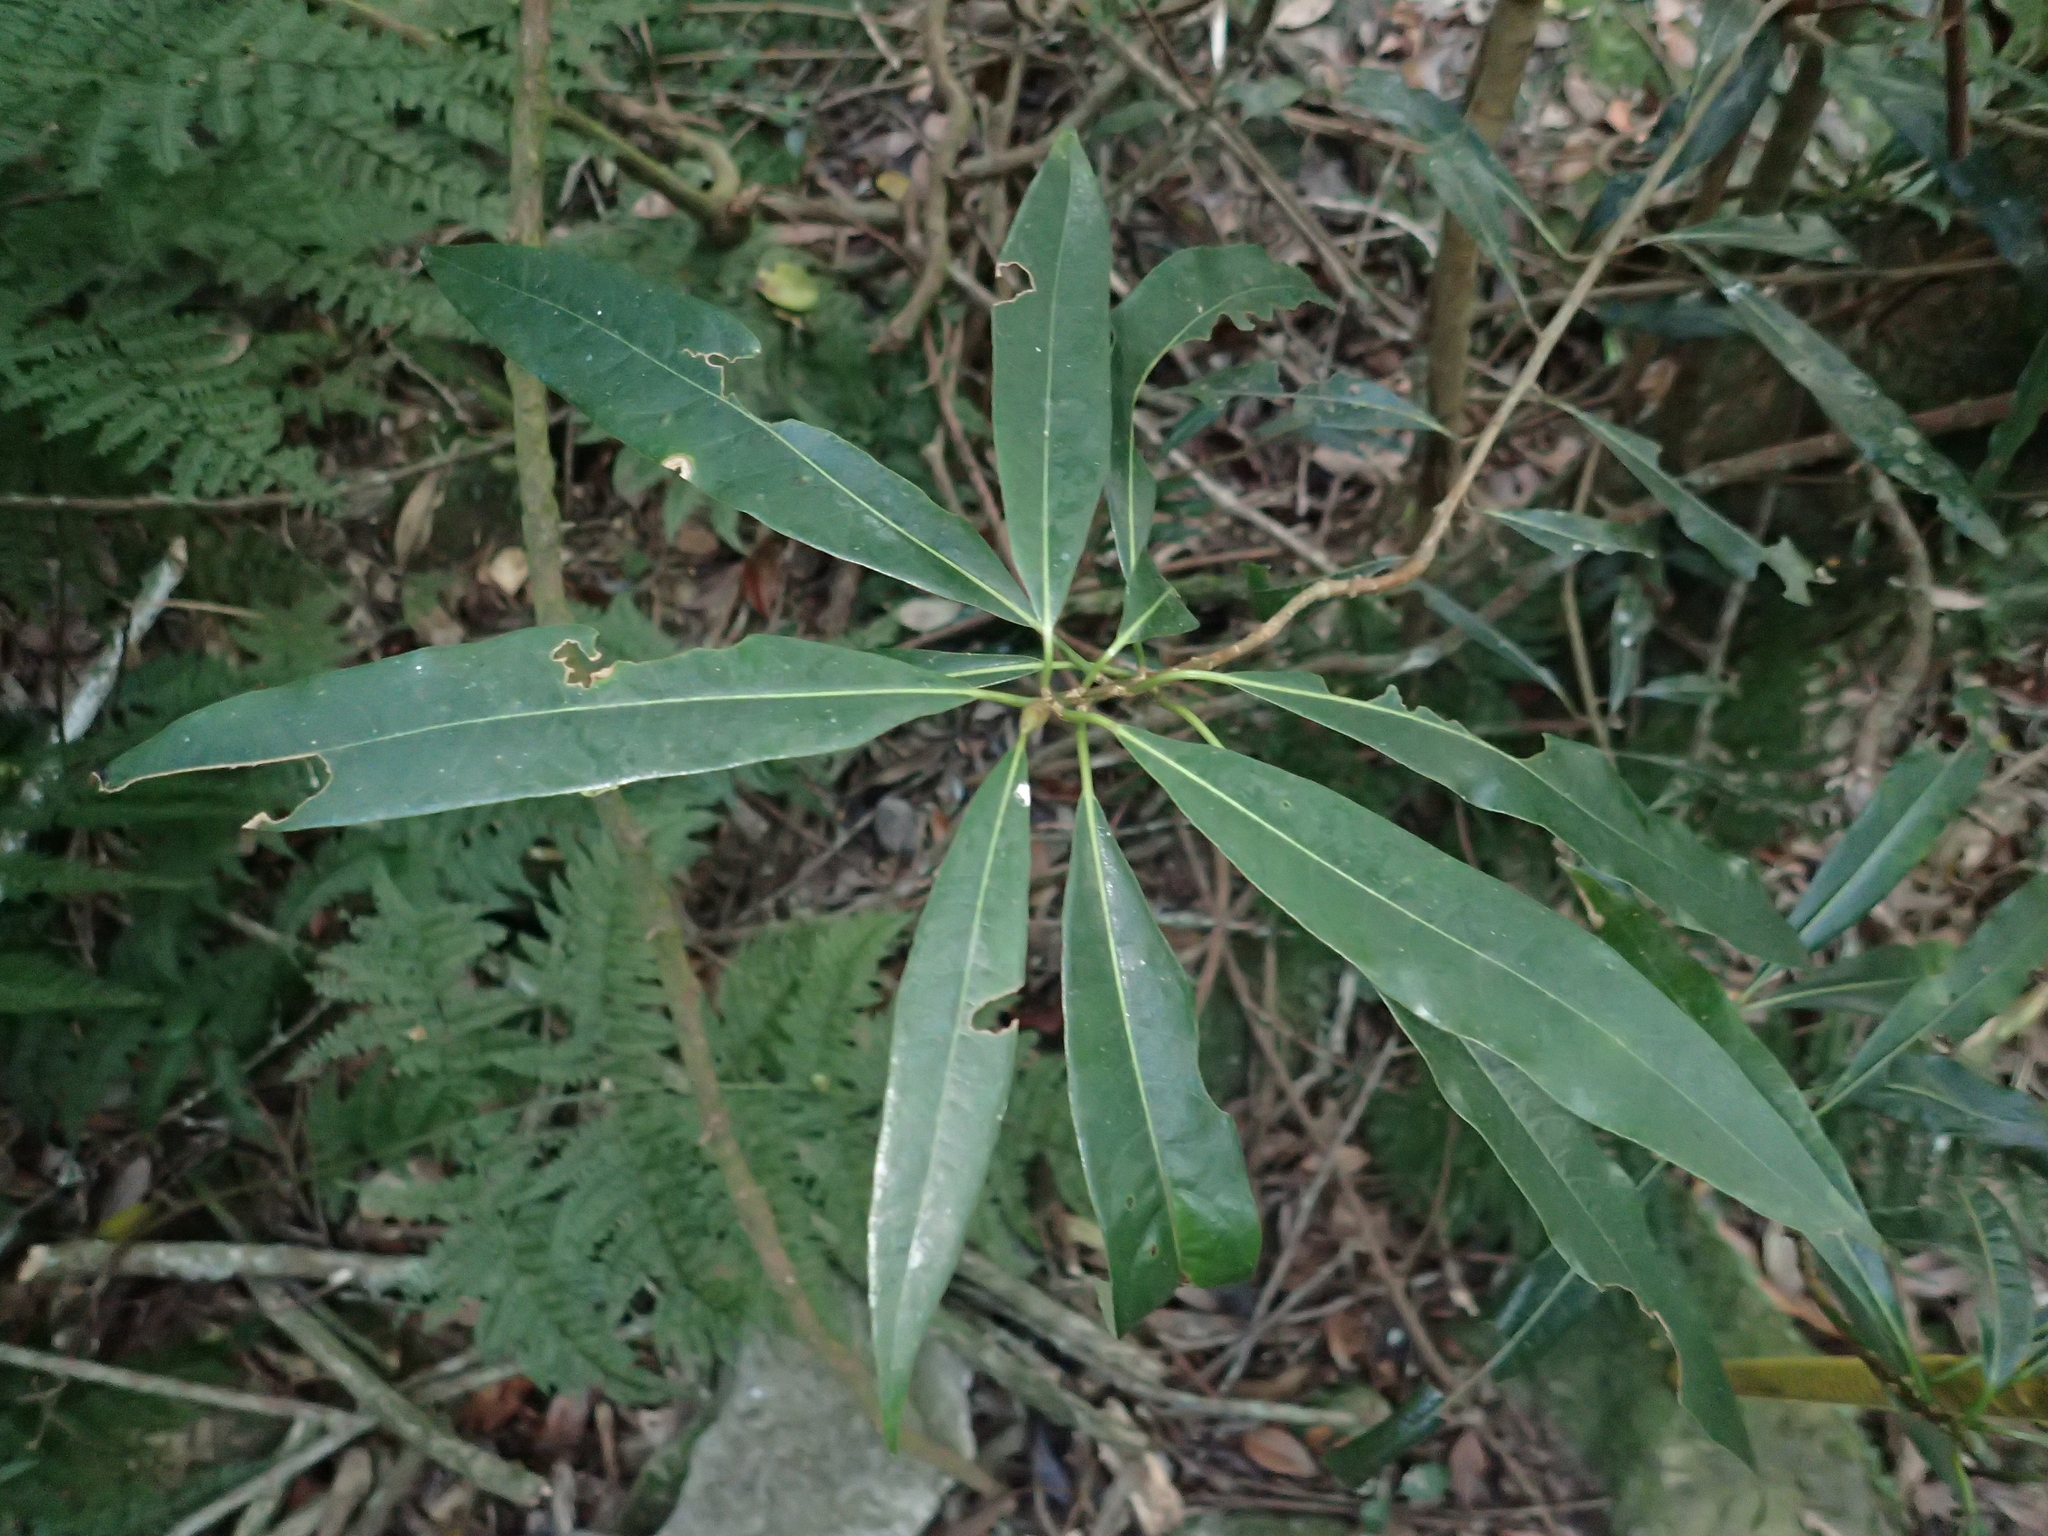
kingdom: Plantae
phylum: Tracheophyta
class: Magnoliopsida
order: Laurales
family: Lauraceae
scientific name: Lauraceae
